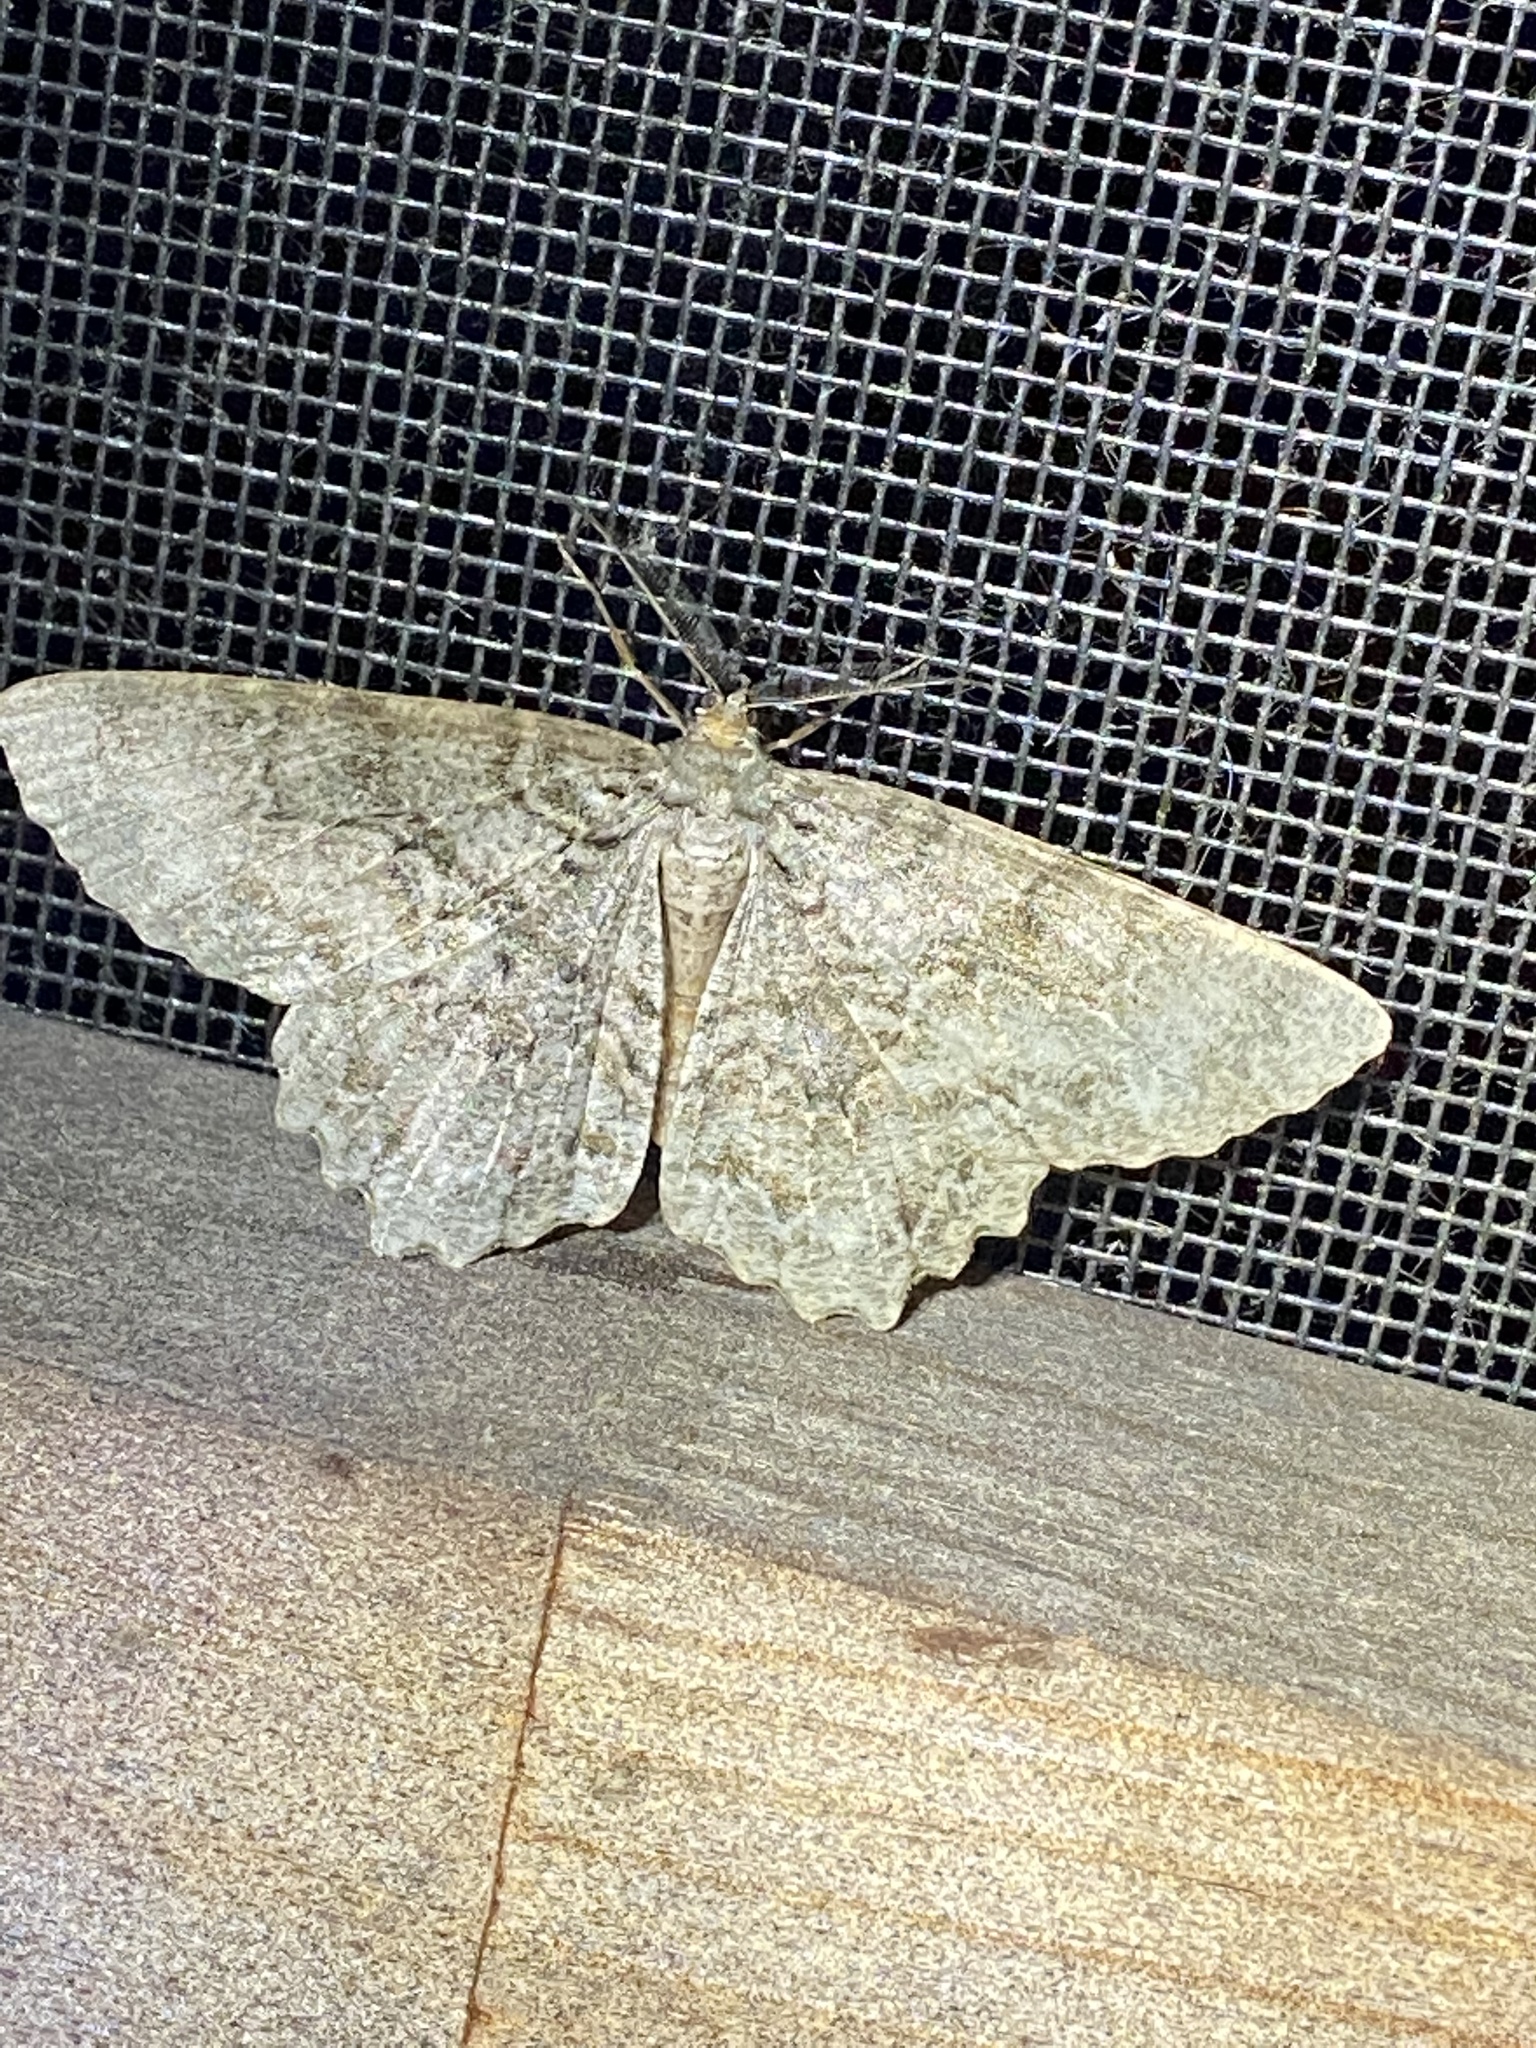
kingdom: Animalia
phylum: Arthropoda
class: Insecta
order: Lepidoptera
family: Geometridae
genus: Epimecis
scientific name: Epimecis hortaria
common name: Tulip-tree beauty
